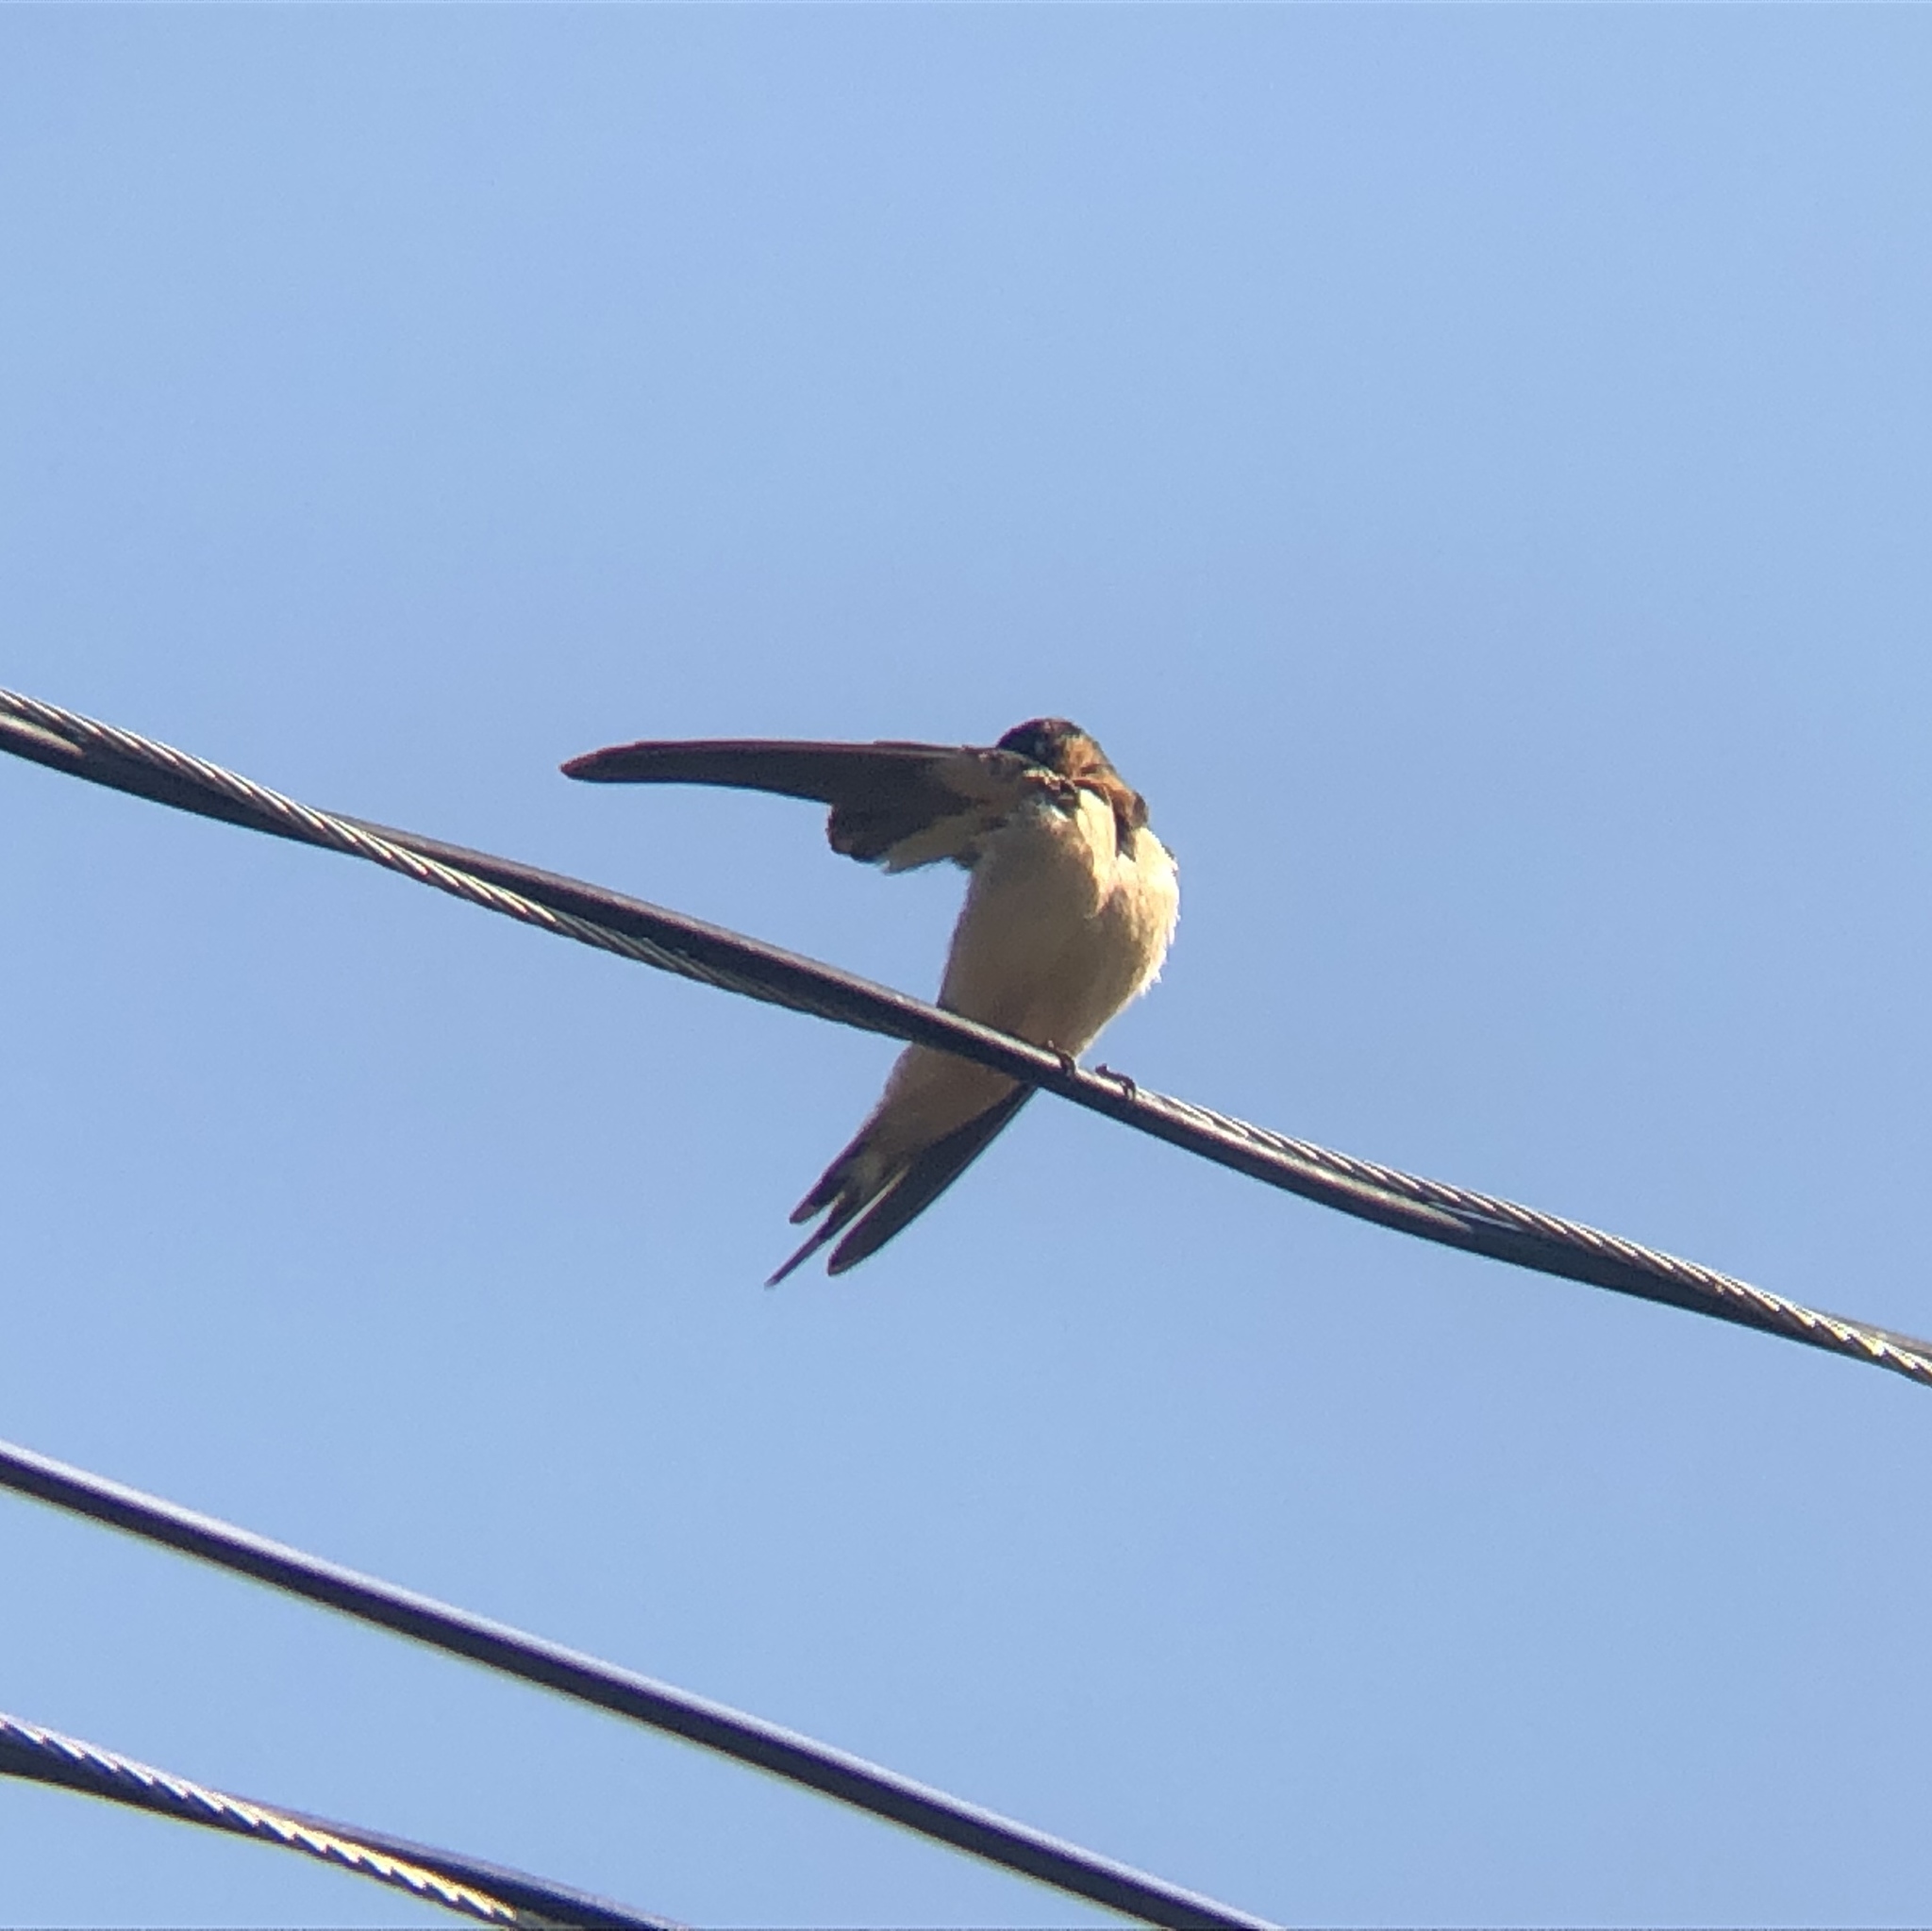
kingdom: Animalia
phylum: Chordata
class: Aves
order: Passeriformes
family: Hirundinidae
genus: Hirundo
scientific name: Hirundo rustica
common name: Barn swallow
